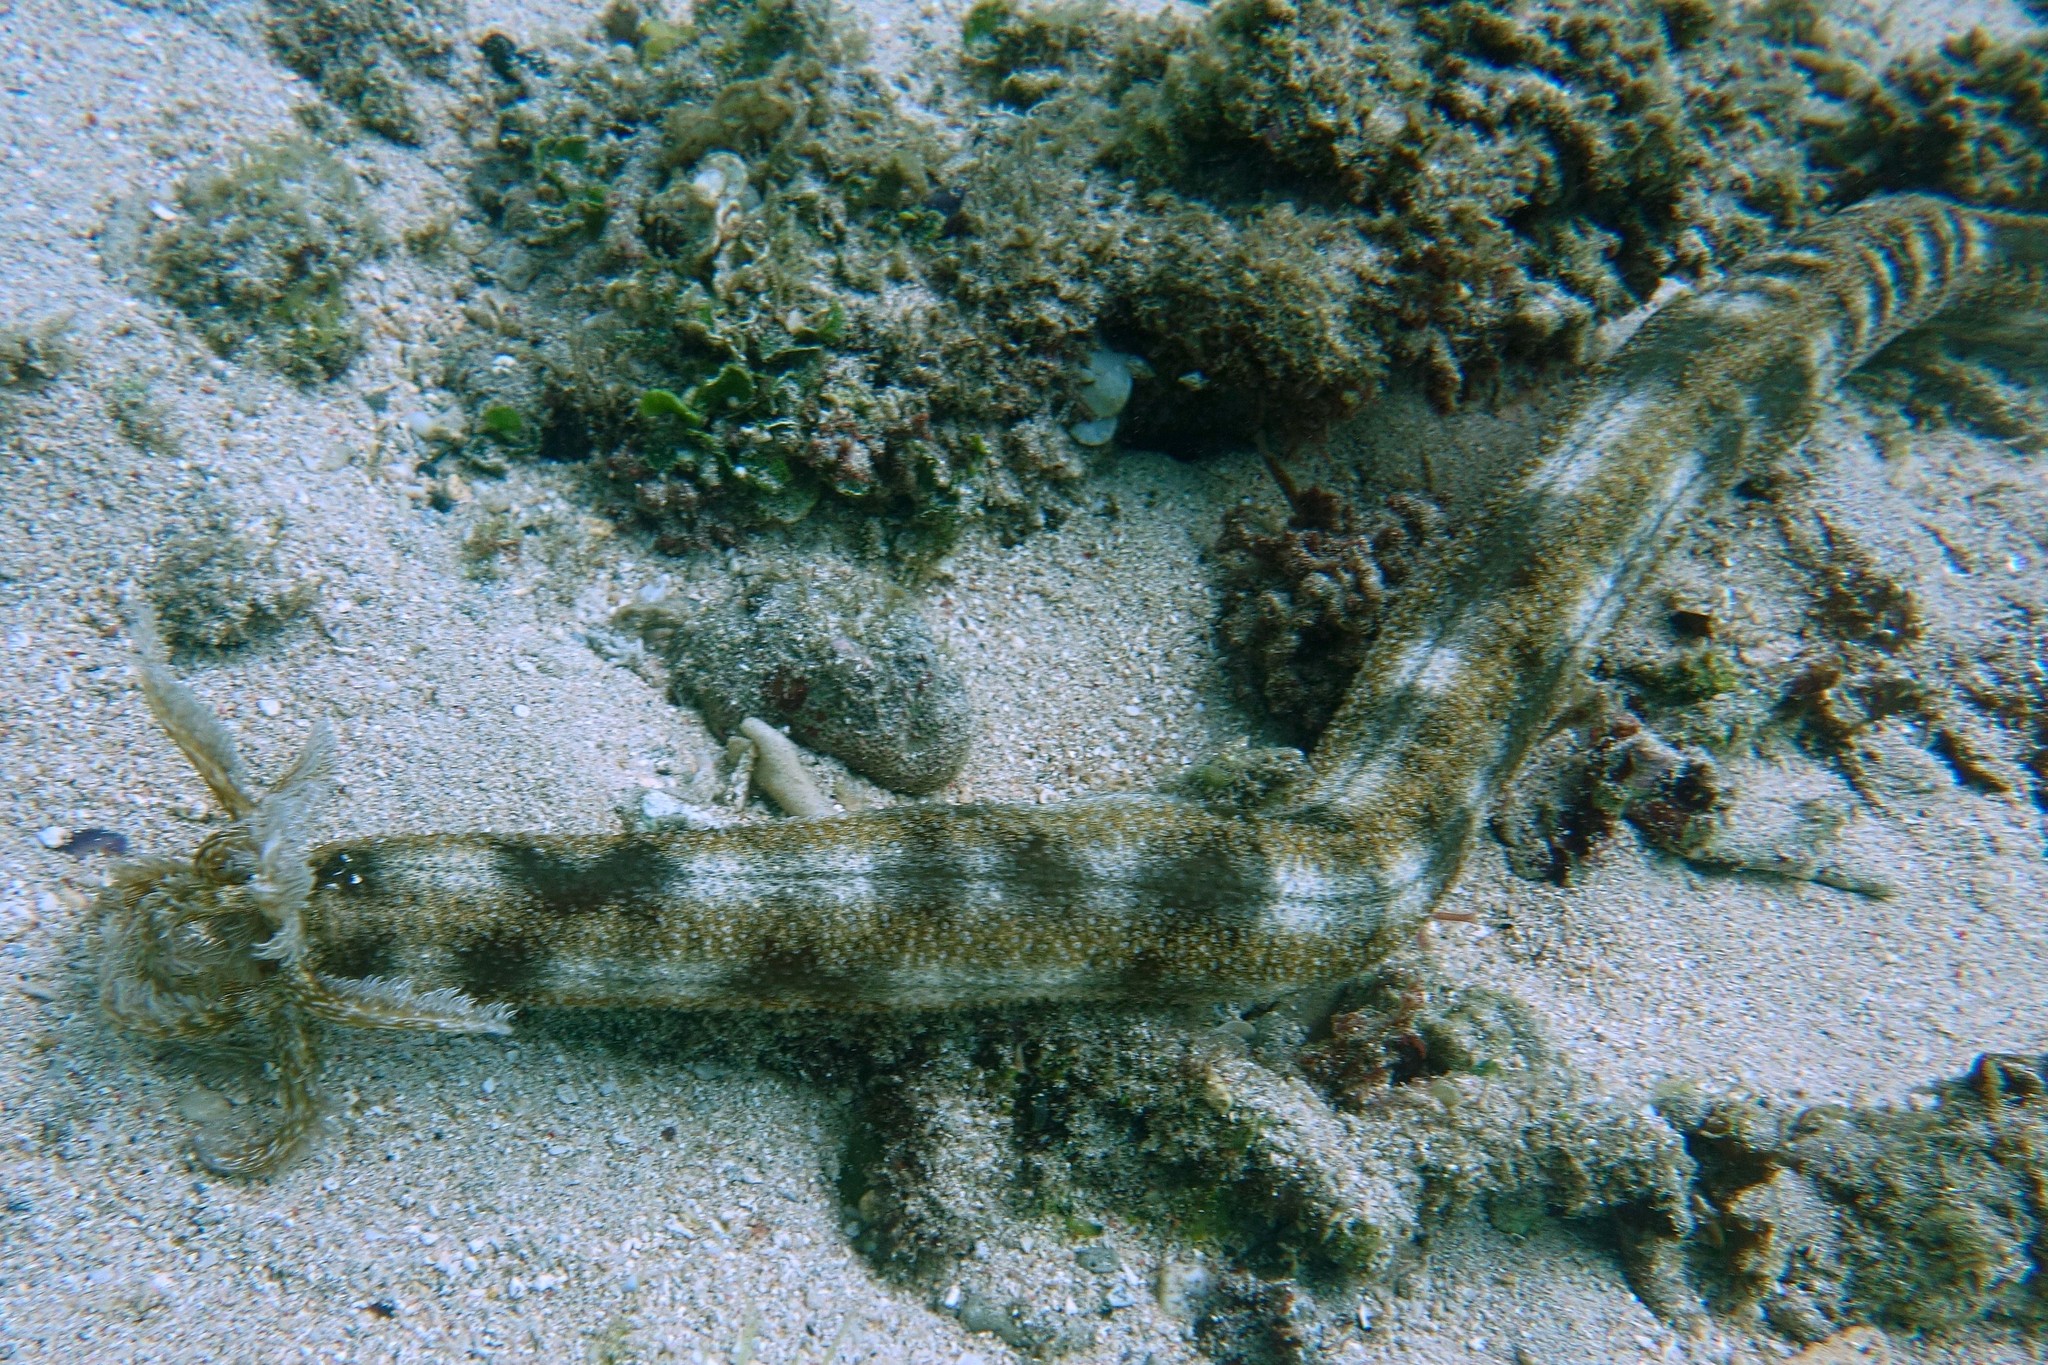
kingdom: Animalia
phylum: Echinodermata
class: Holothuroidea
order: Apodida
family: Synaptidae
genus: Synapta
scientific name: Synapta maculata
